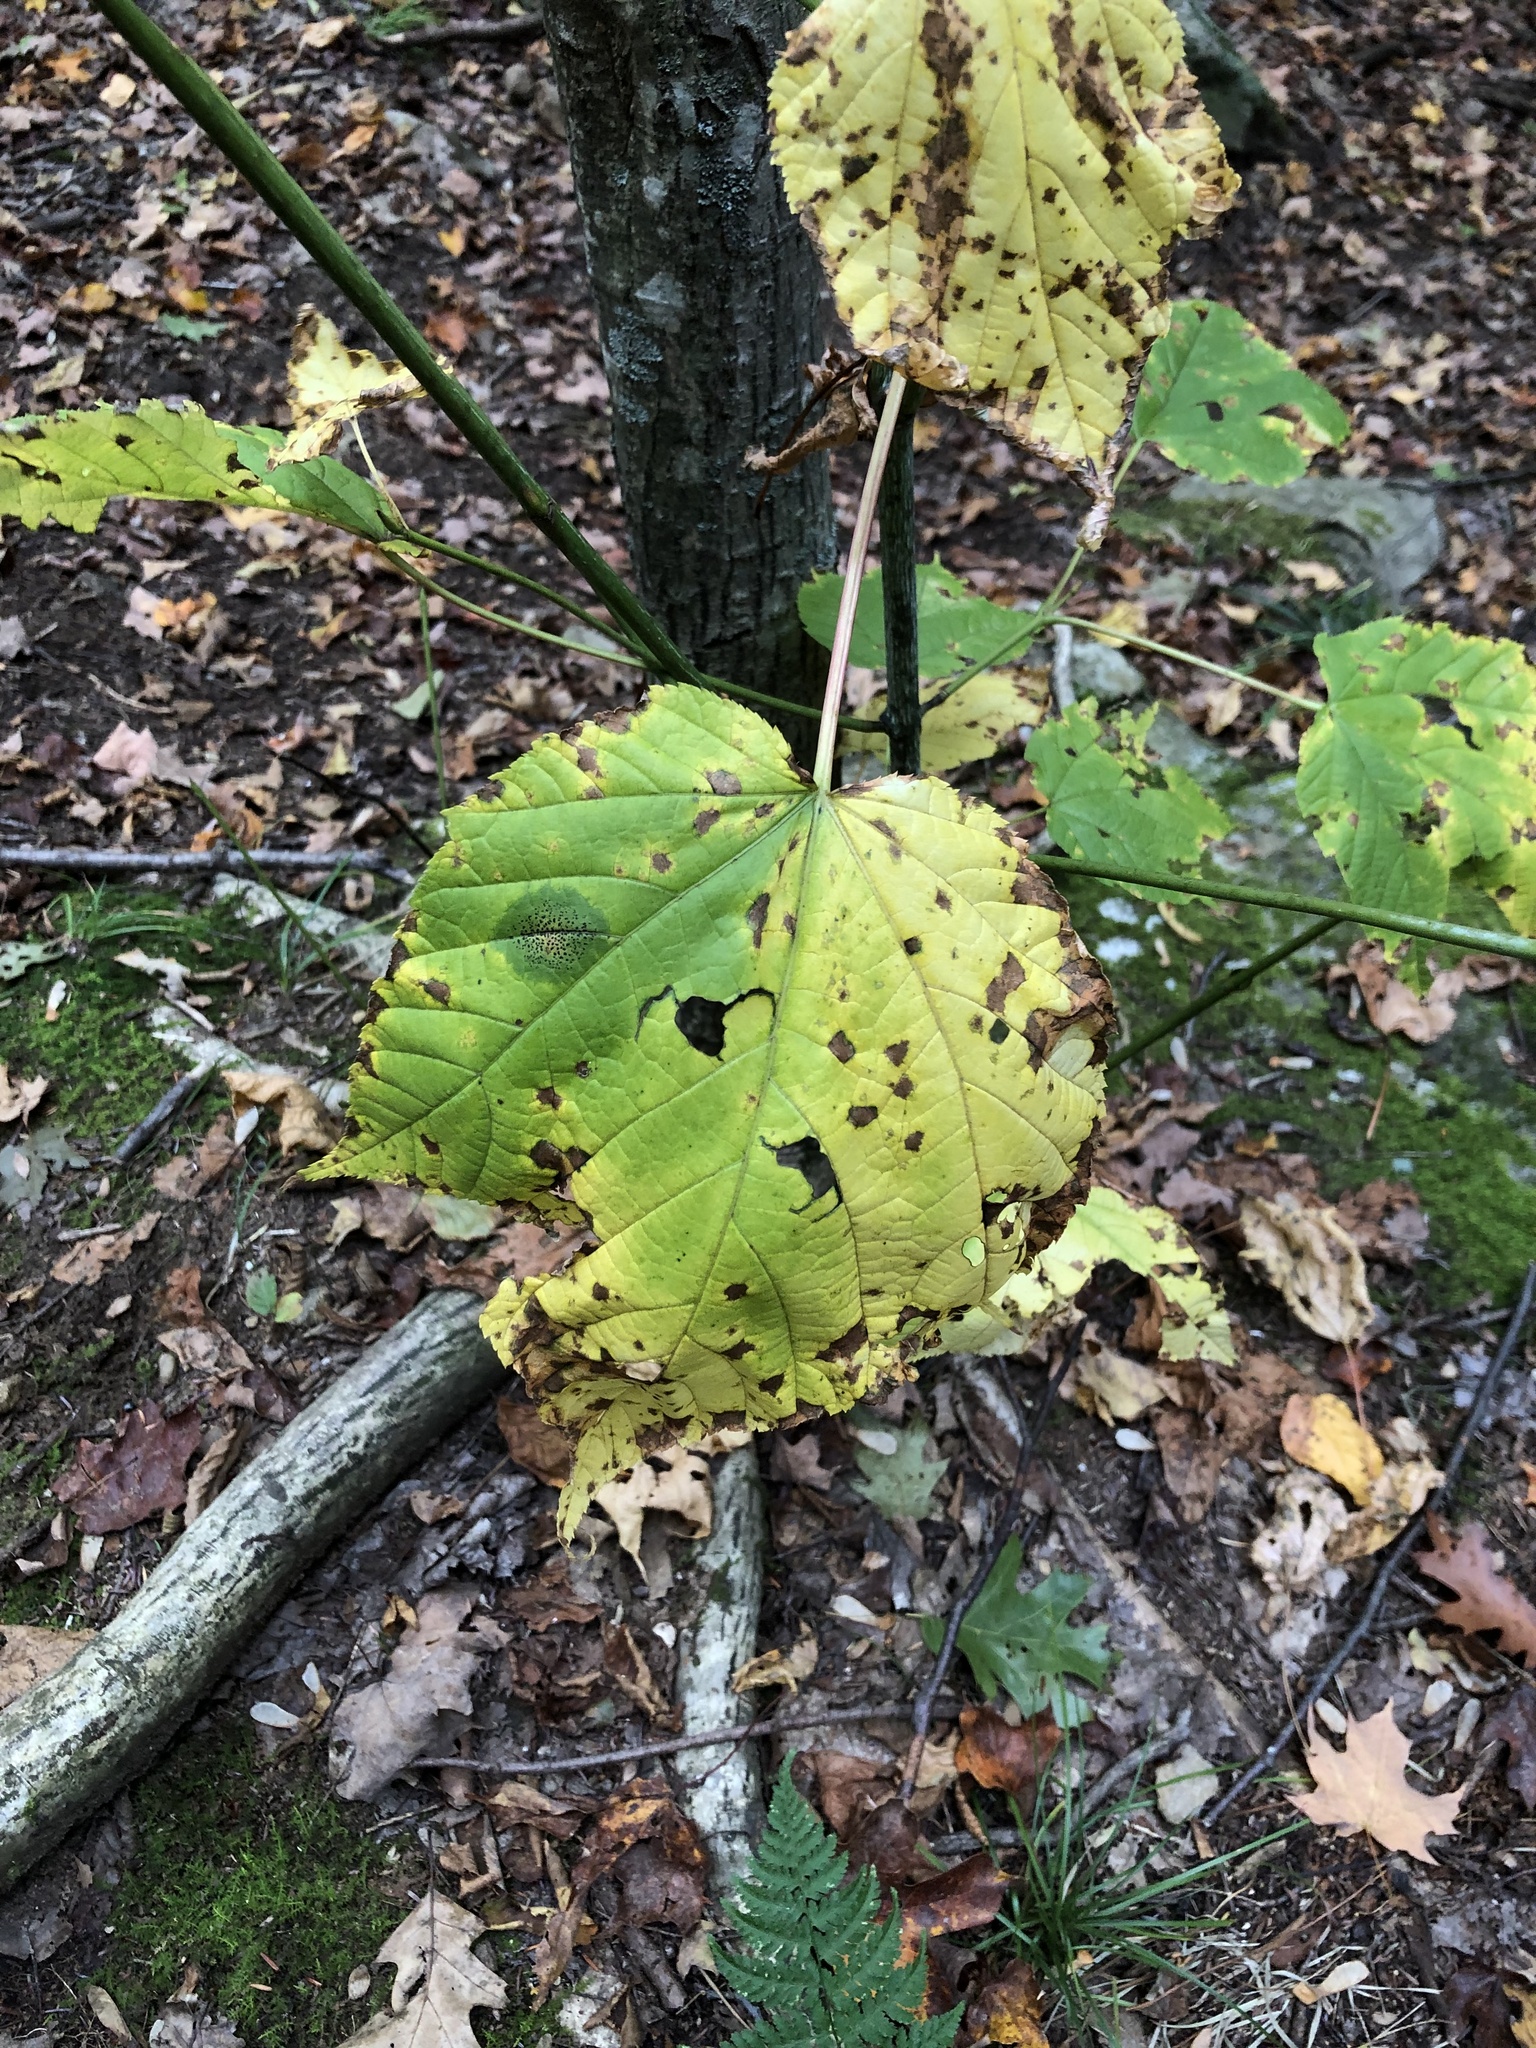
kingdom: Plantae
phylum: Tracheophyta
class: Magnoliopsida
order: Sapindales
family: Sapindaceae
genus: Acer
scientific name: Acer pensylvanicum
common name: Moosewood
